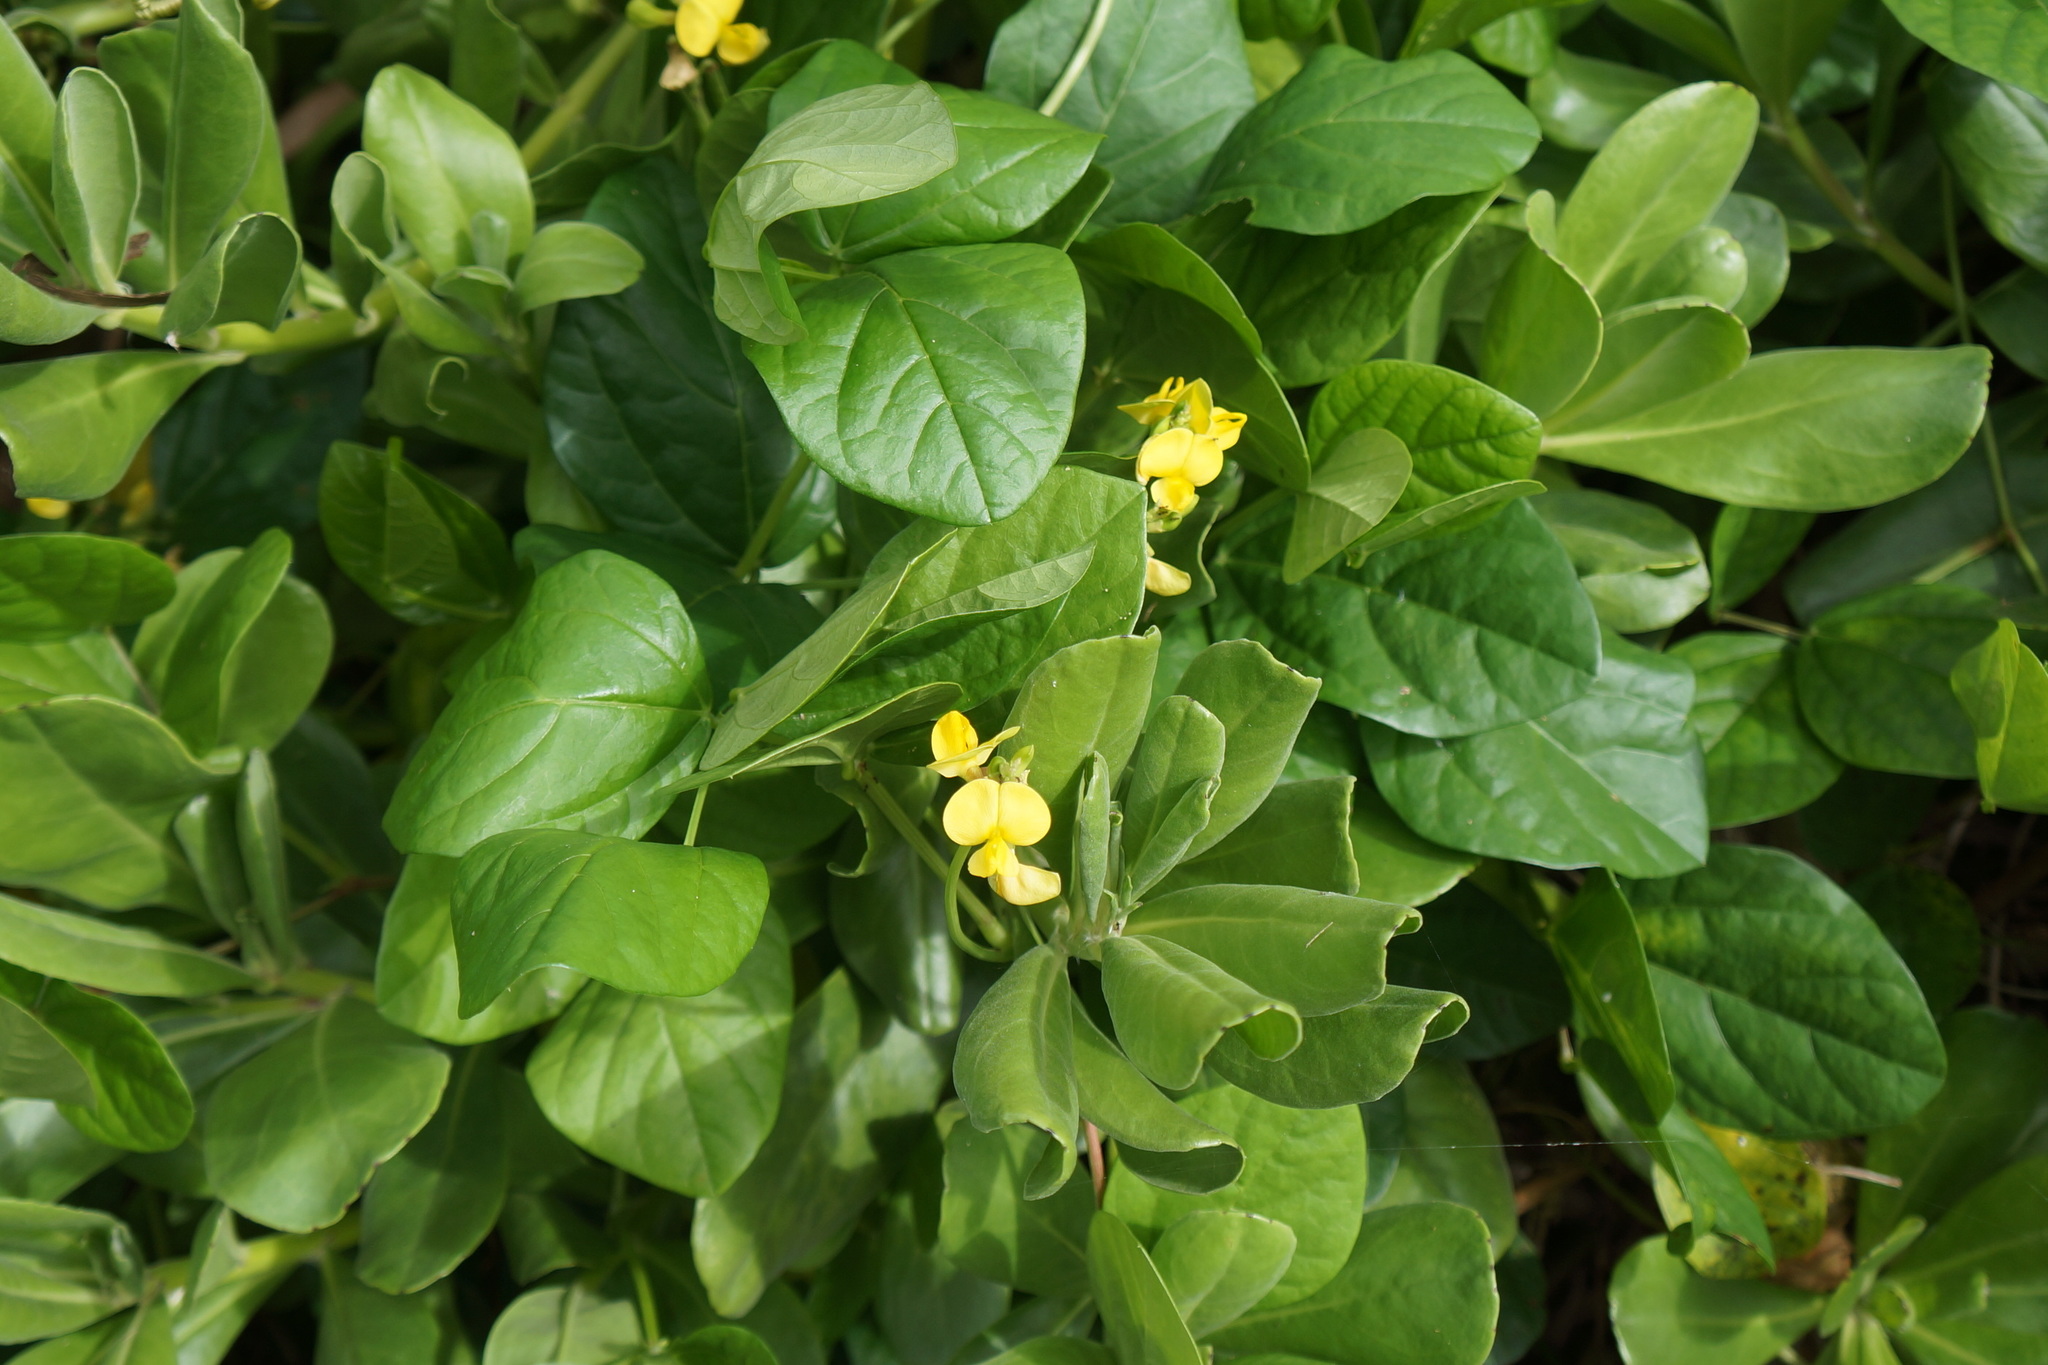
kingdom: Plantae
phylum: Tracheophyta
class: Magnoliopsida
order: Fabales
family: Fabaceae
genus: Vigna
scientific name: Vigna marina
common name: Dune-bean
